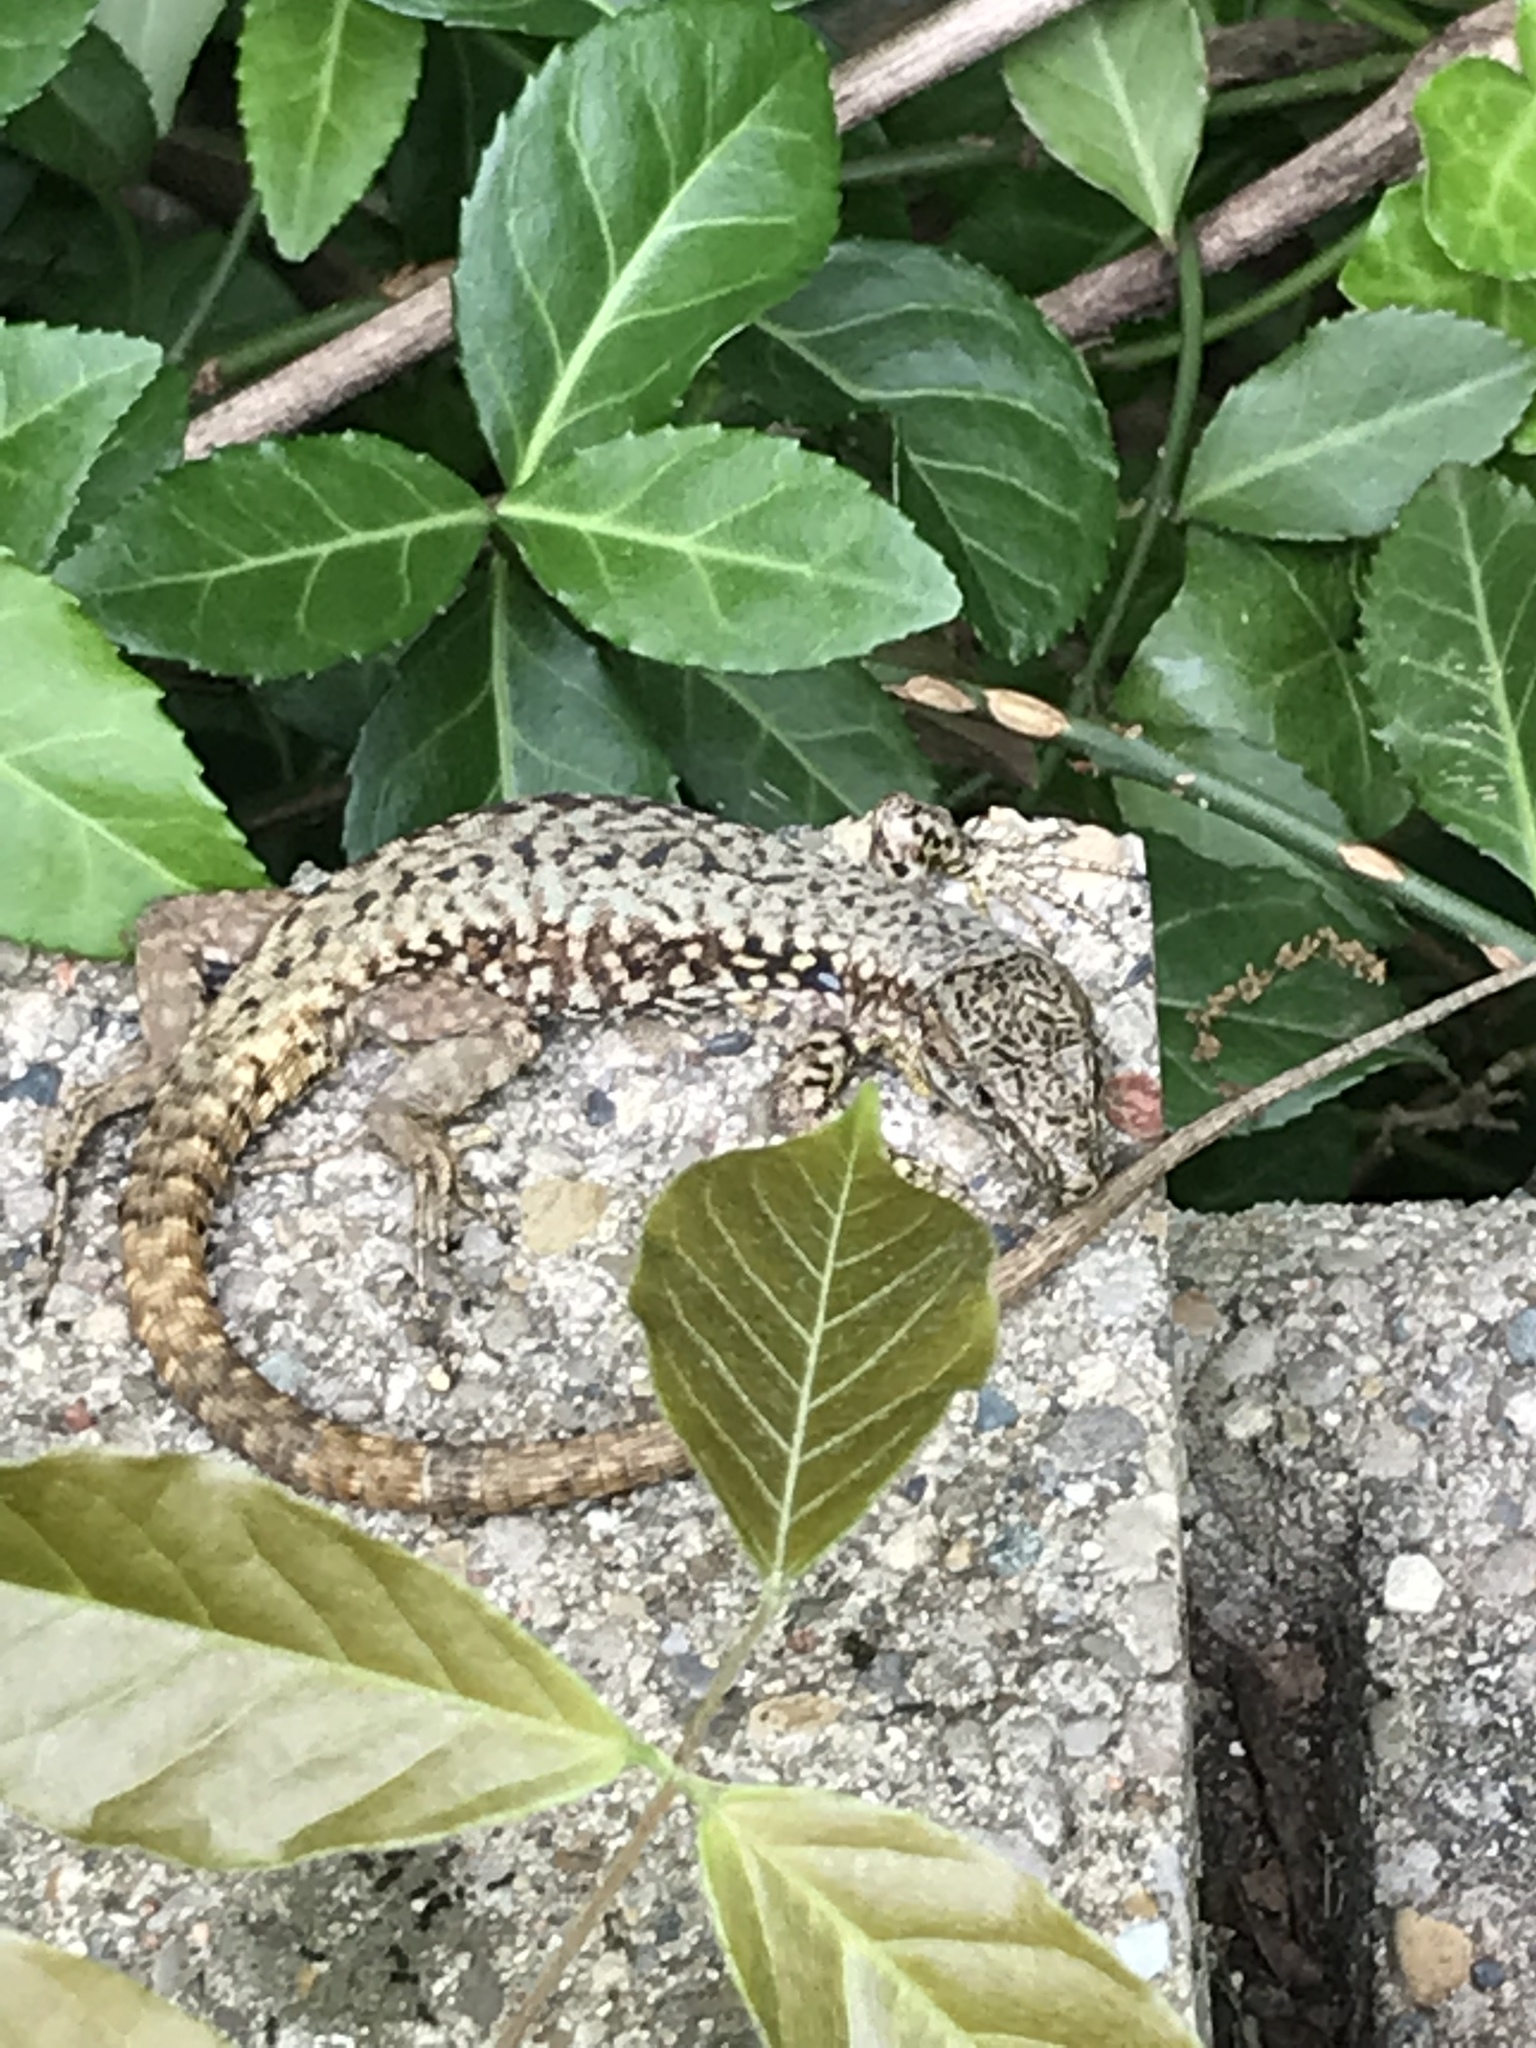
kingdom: Animalia
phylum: Chordata
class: Squamata
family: Lacertidae
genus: Podarcis
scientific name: Podarcis muralis
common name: Common wall lizard
